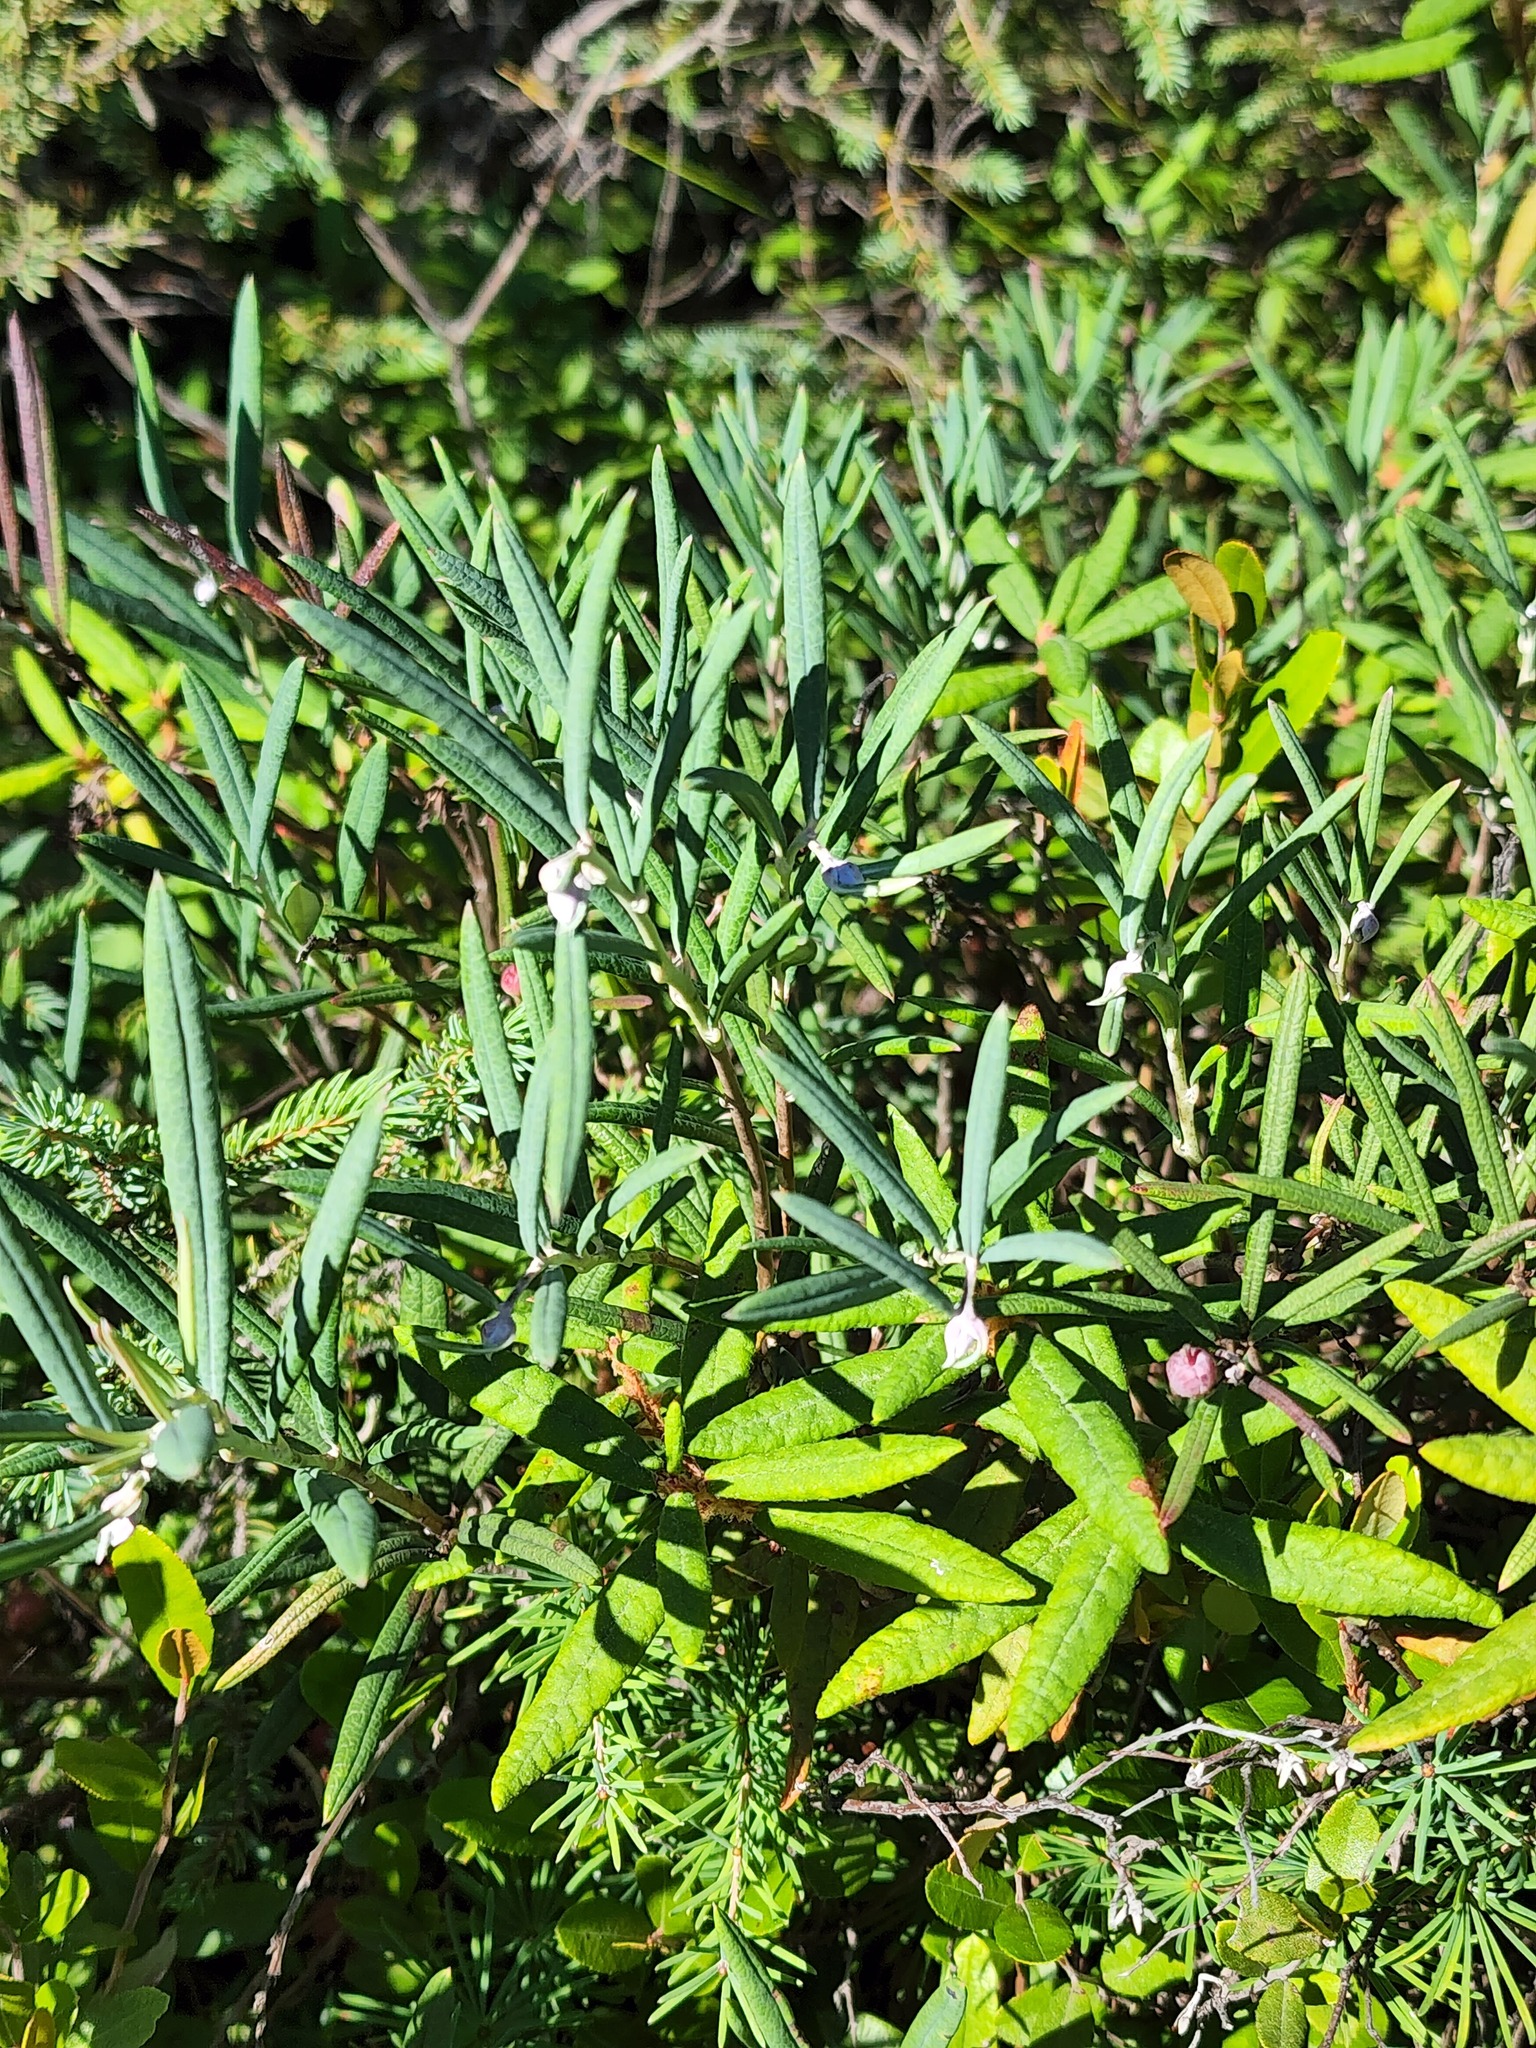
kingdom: Plantae
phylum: Tracheophyta
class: Magnoliopsida
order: Ericales
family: Ericaceae
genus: Andromeda
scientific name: Andromeda polifolia
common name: Bog-rosemary
